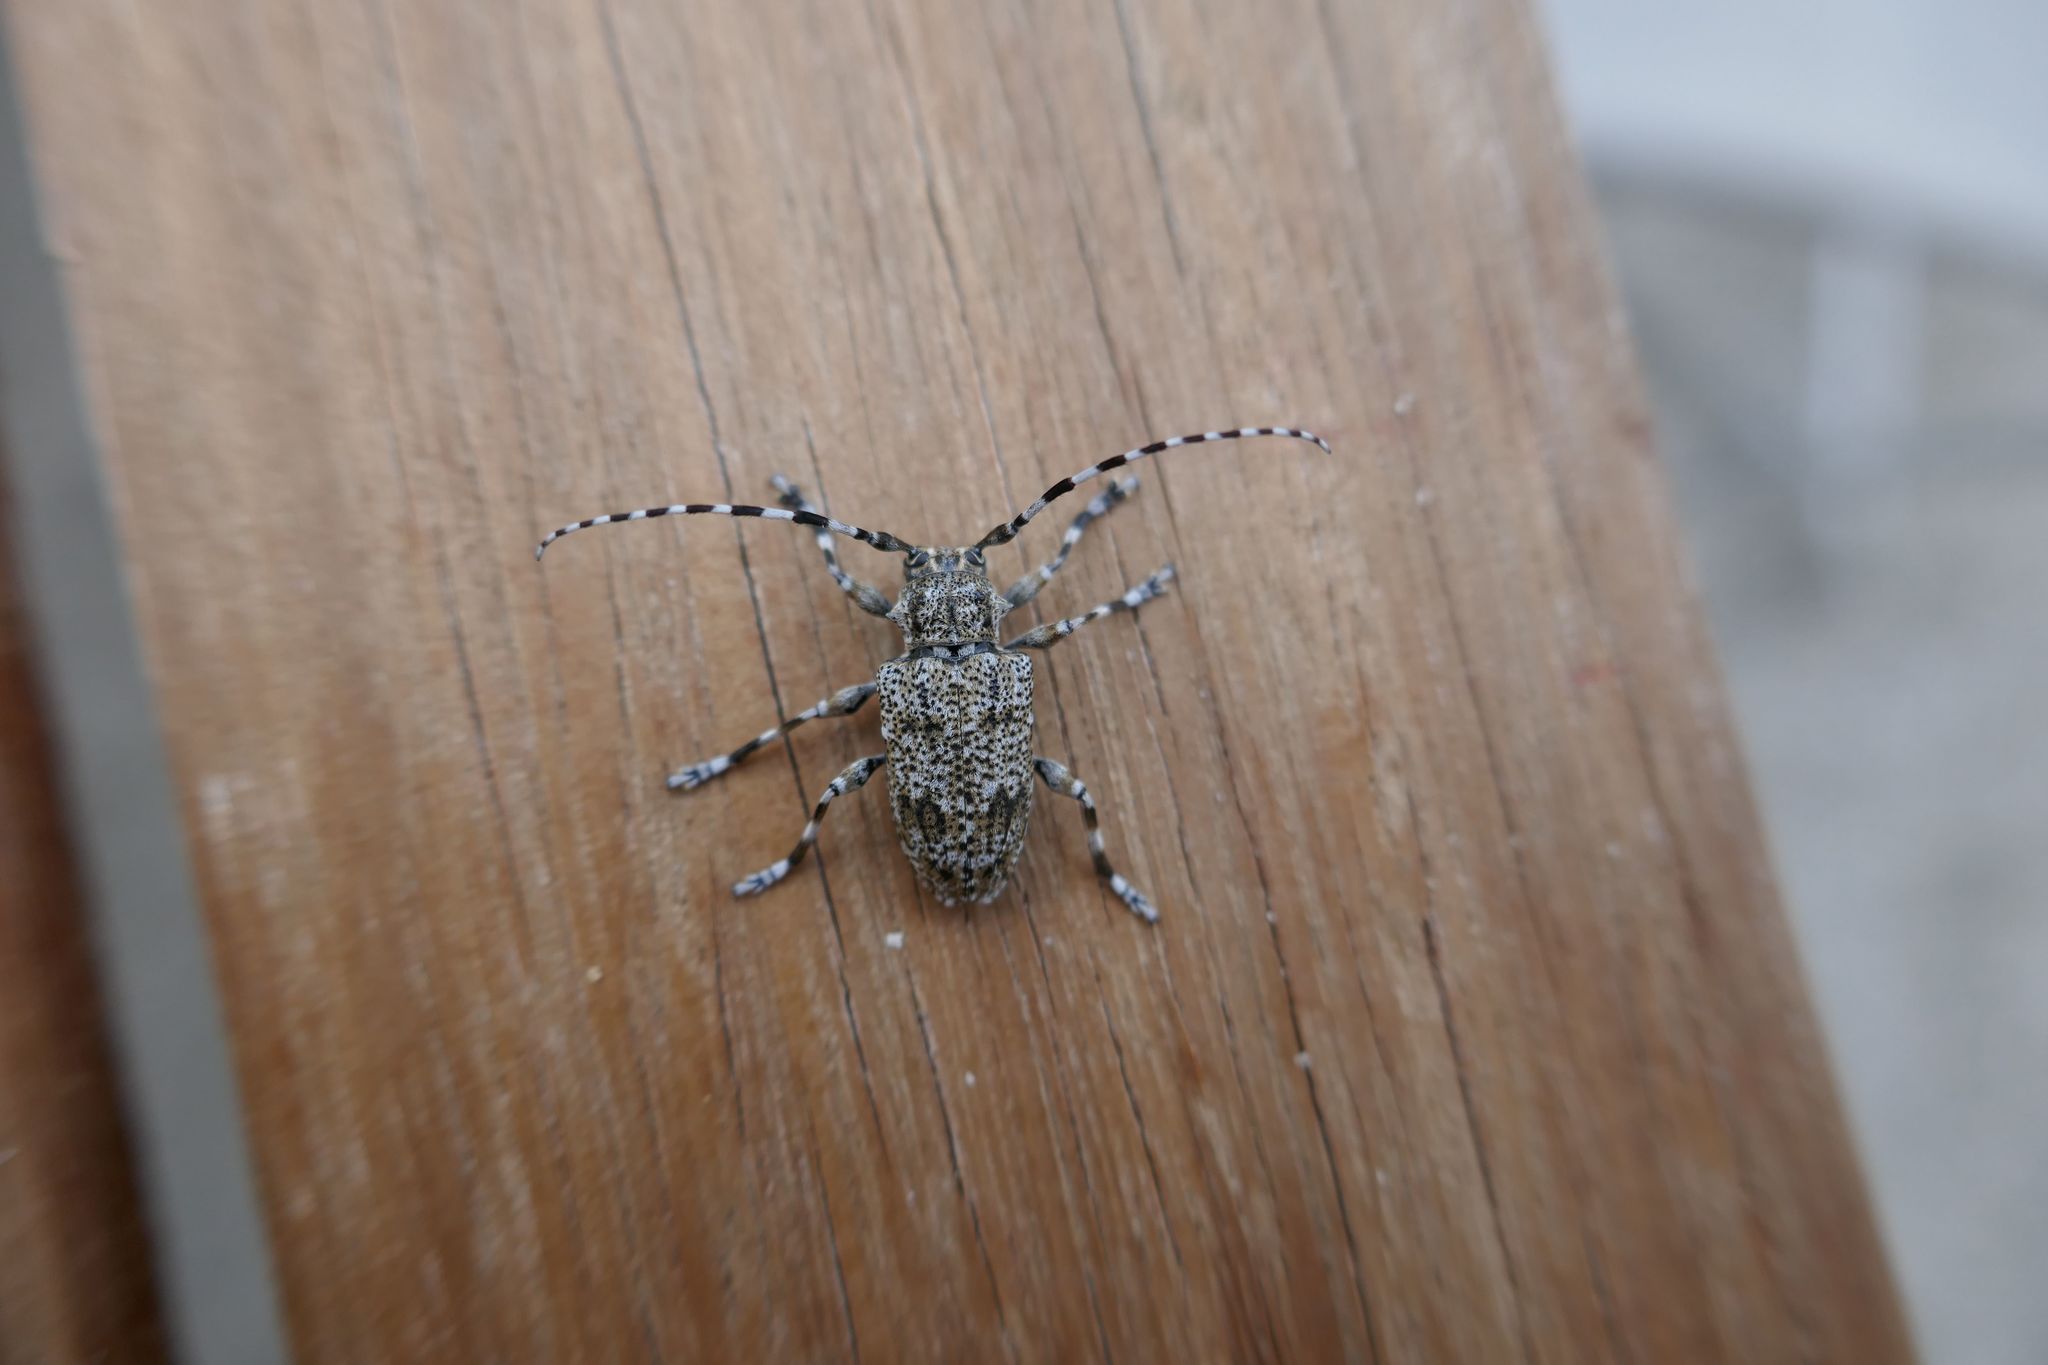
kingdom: Animalia
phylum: Arthropoda
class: Insecta
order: Coleoptera
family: Cerambycidae
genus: Aegomorphus
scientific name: Aegomorphus clavipes
